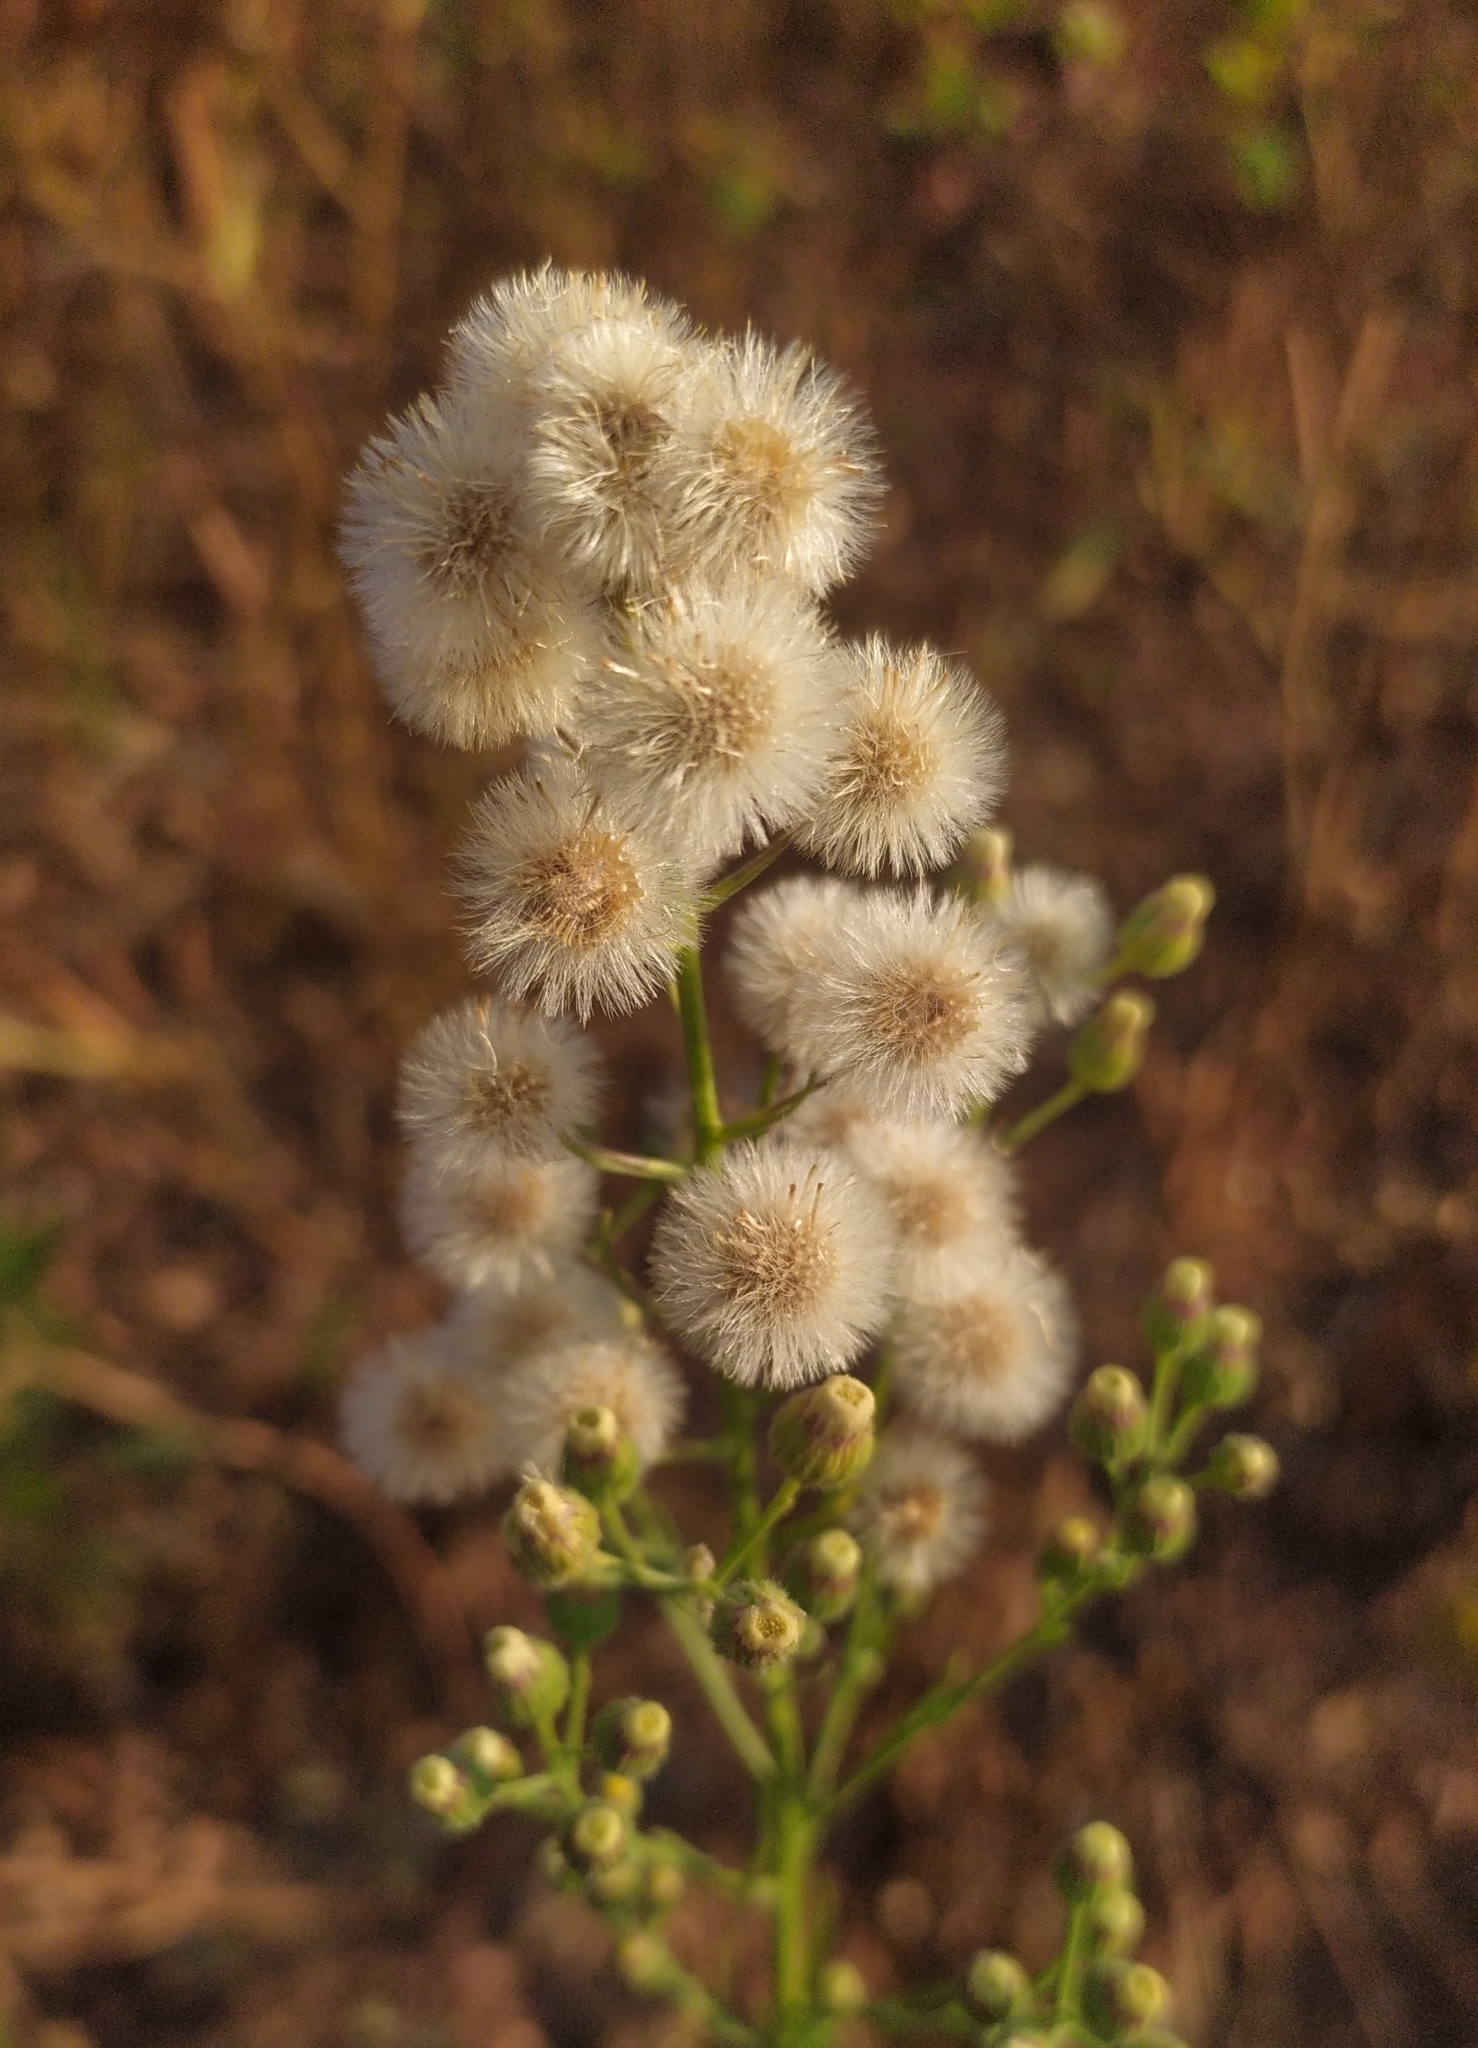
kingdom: Plantae
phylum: Tracheophyta
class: Magnoliopsida
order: Asterales
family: Asteraceae
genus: Erigeron
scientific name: Erigeron bonariensis
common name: Argentine fleabane
